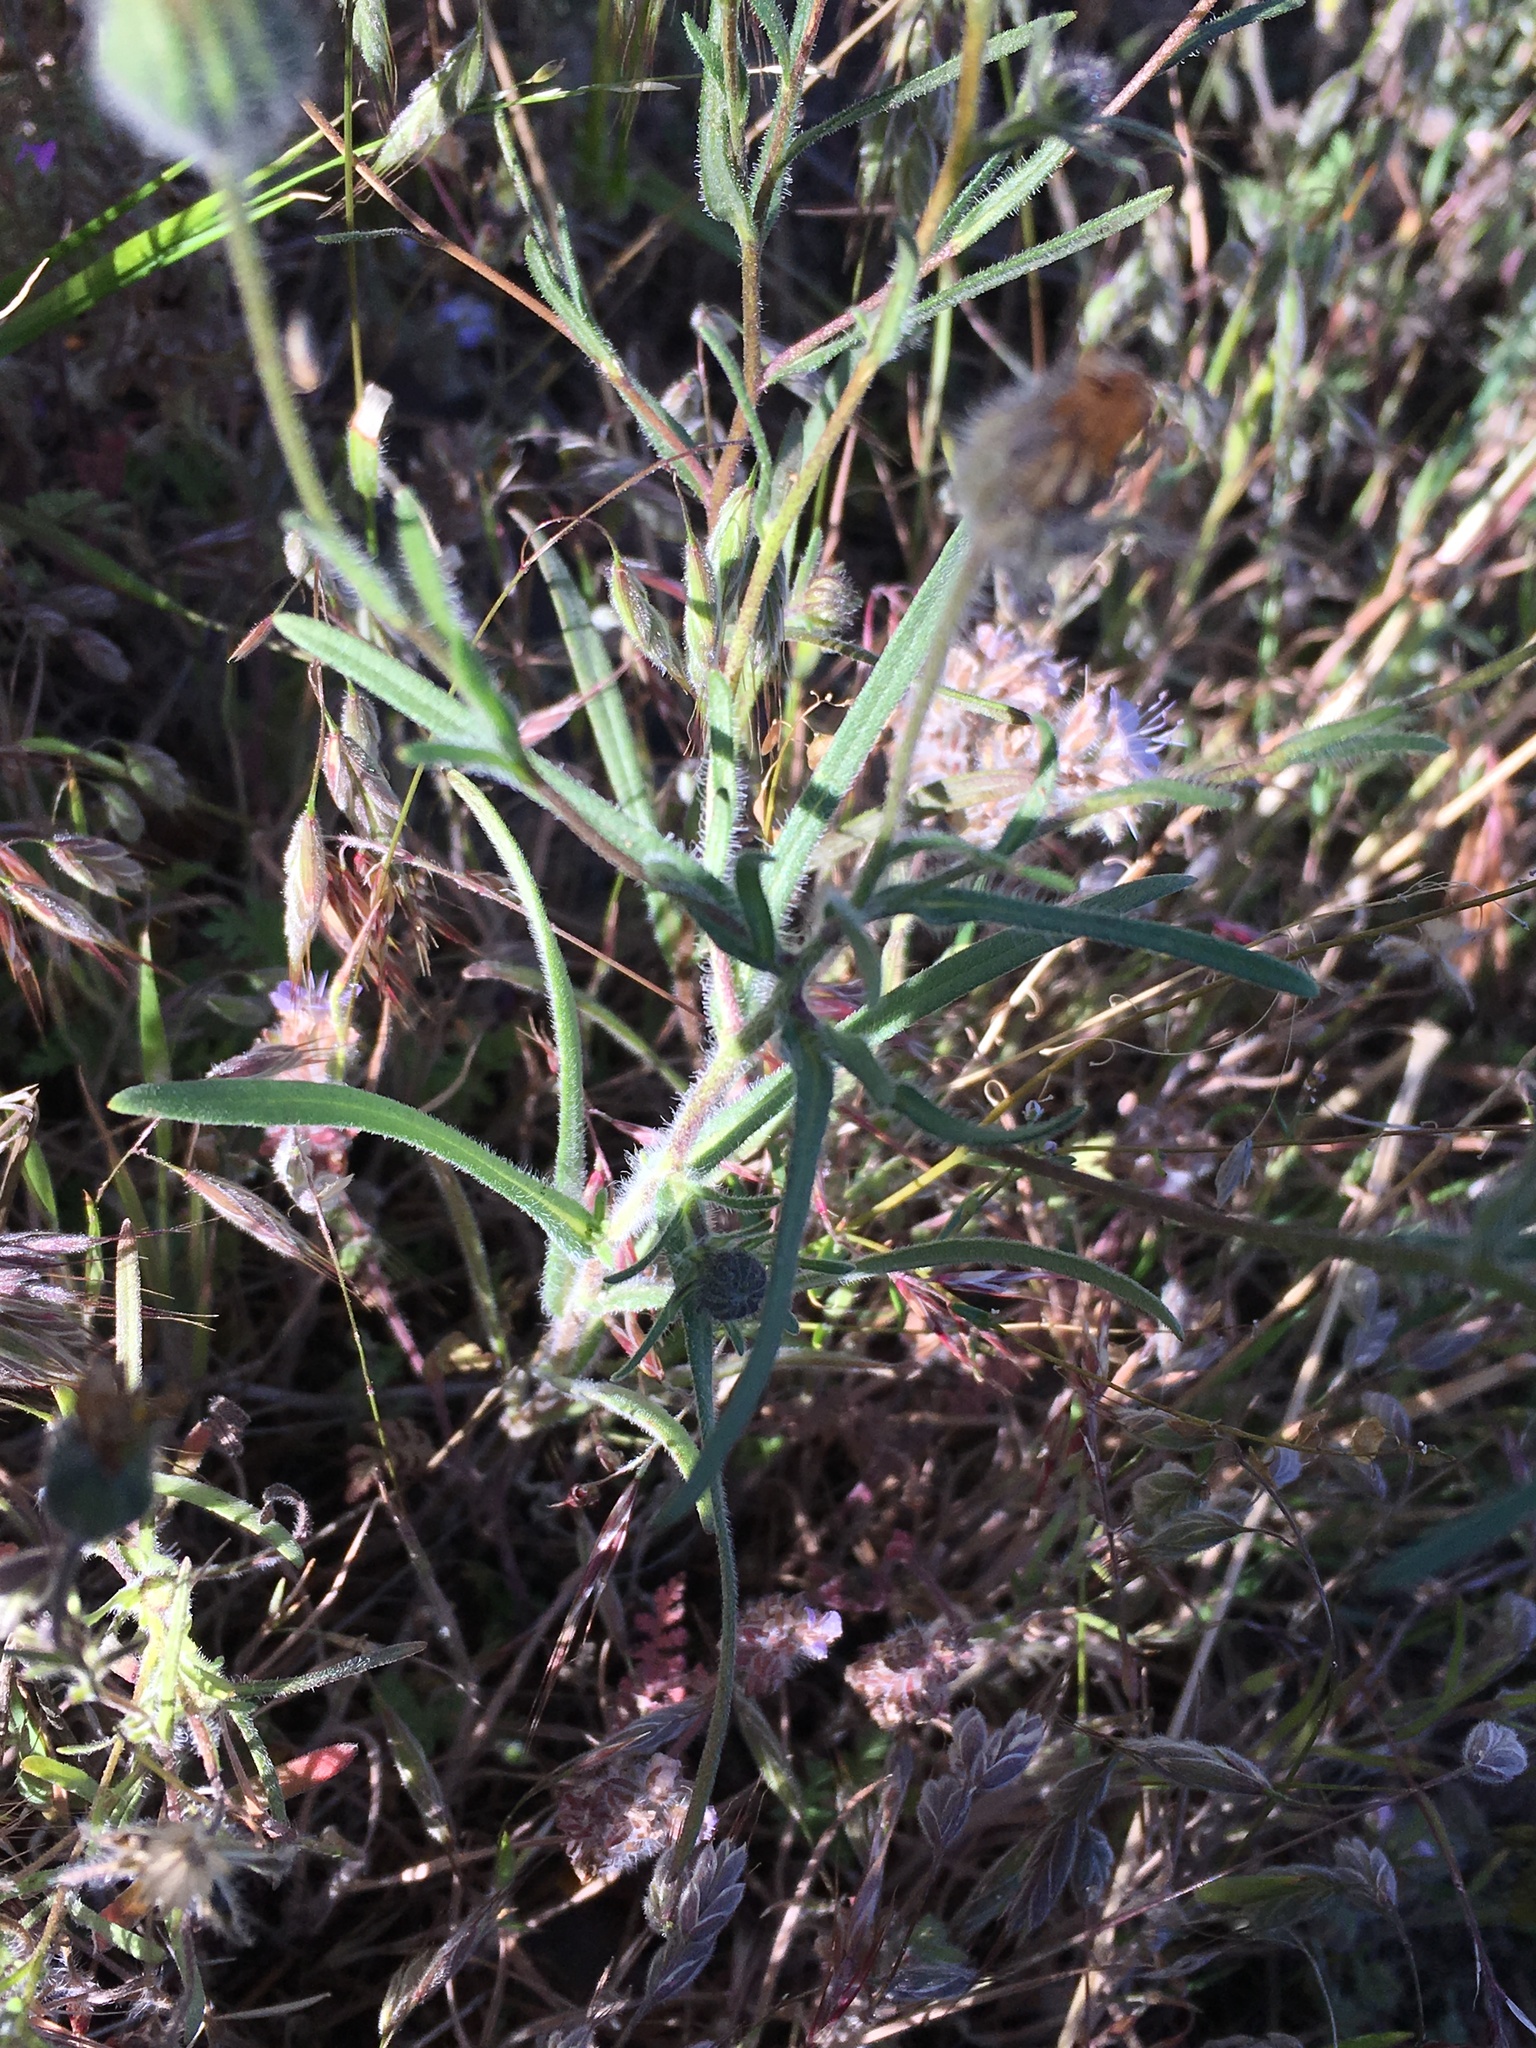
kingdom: Plantae
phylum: Tracheophyta
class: Magnoliopsida
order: Asterales
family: Asteraceae
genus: Madia
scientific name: Madia elegans
